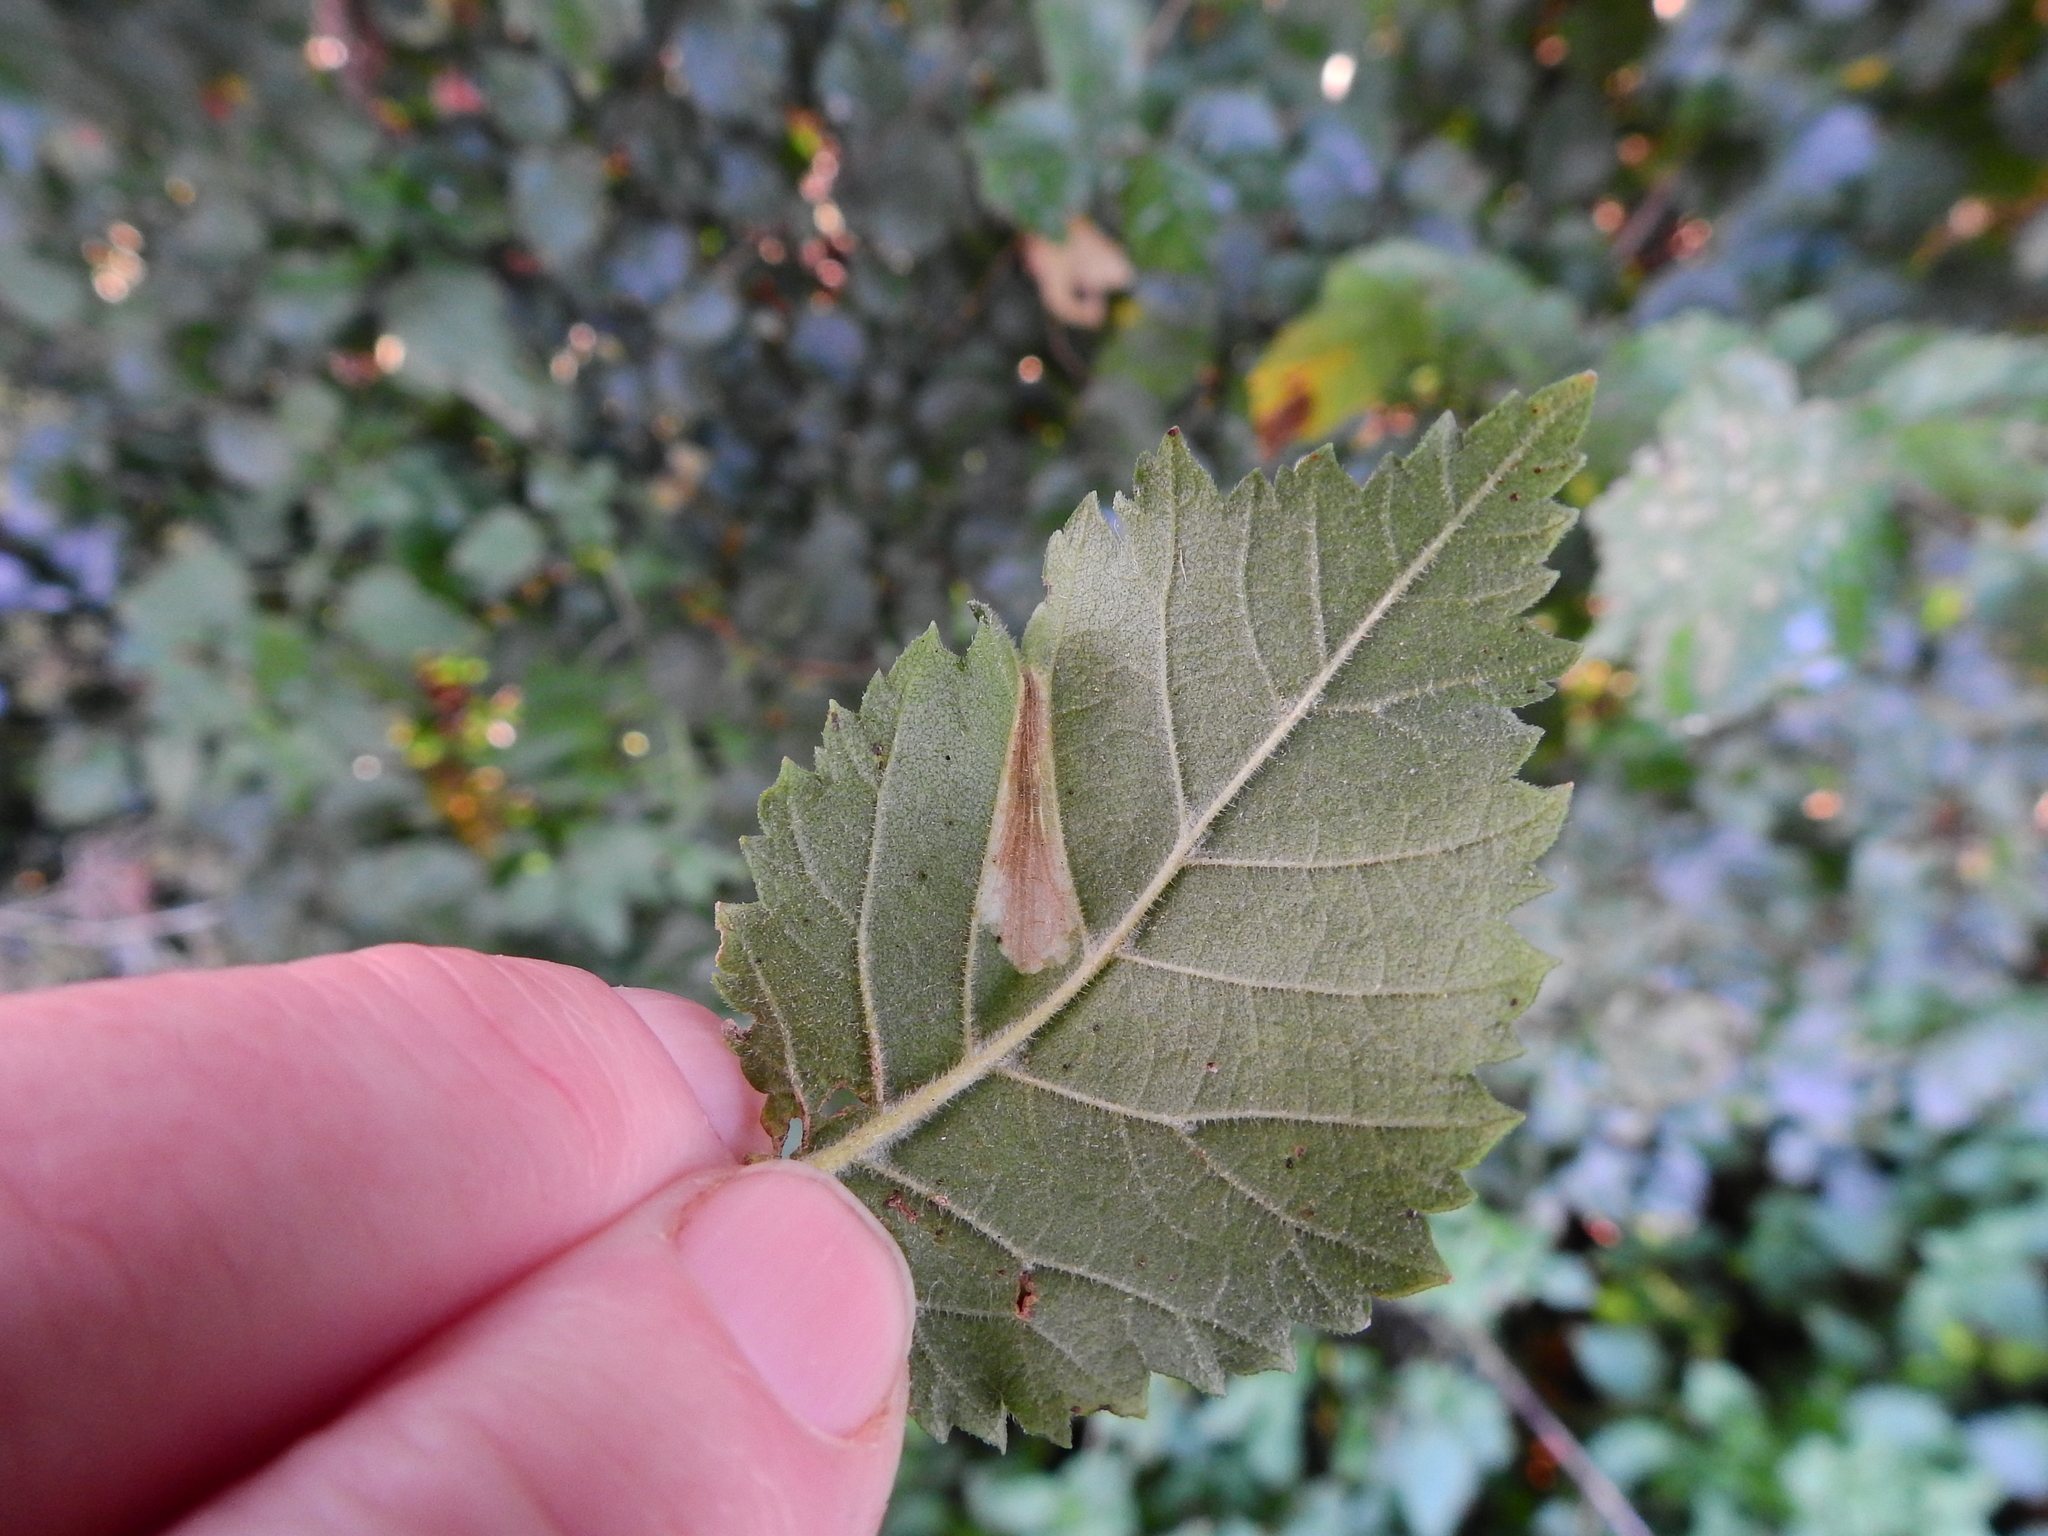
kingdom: Animalia
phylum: Arthropoda
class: Insecta
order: Lepidoptera
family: Gracillariidae
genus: Phyllonorycter
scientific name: Phyllonorycter schreberella
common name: Small elm midget
